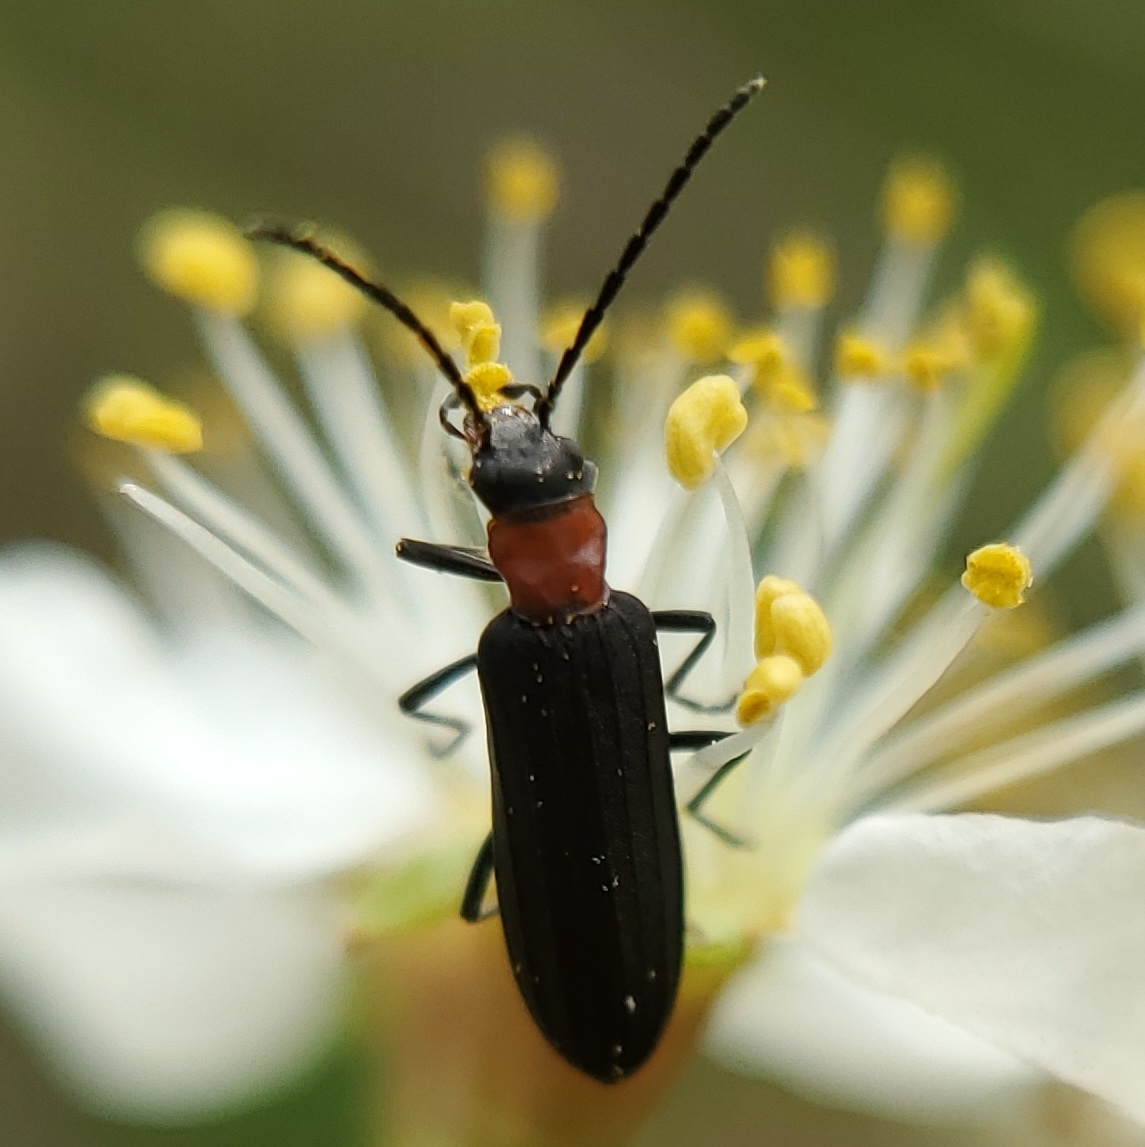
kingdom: Animalia
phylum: Arthropoda
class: Insecta
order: Coleoptera
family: Oedemeridae
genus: Ischnomera
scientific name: Ischnomera
